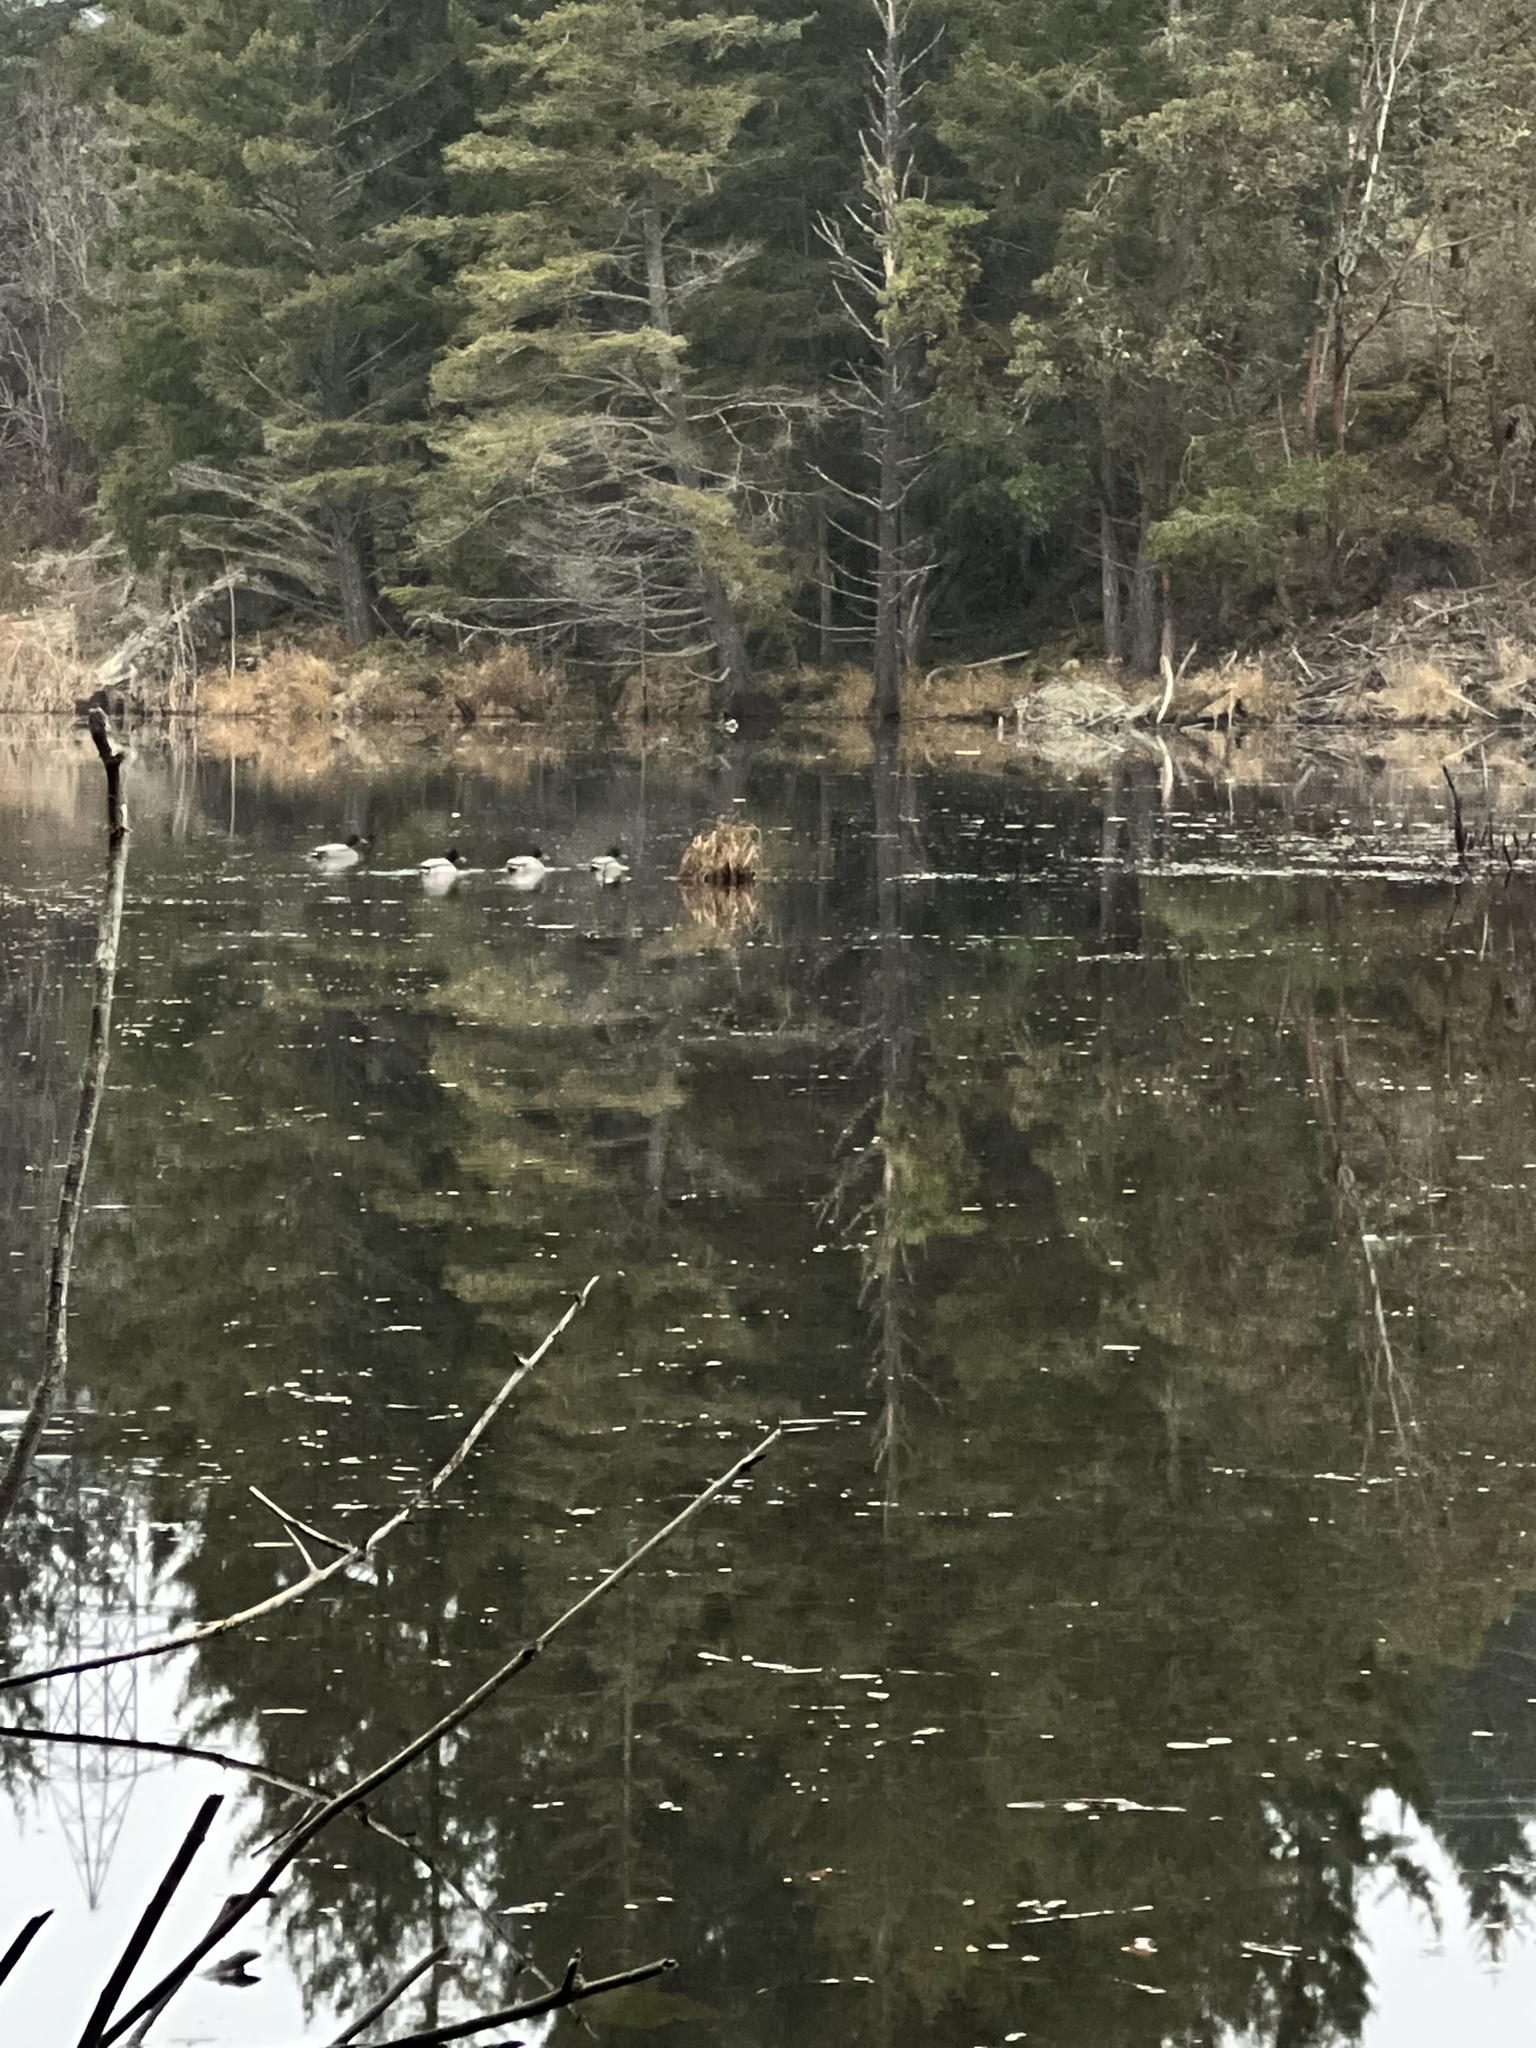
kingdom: Animalia
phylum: Chordata
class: Aves
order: Anseriformes
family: Anatidae
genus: Anas
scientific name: Anas platyrhynchos
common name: Mallard
